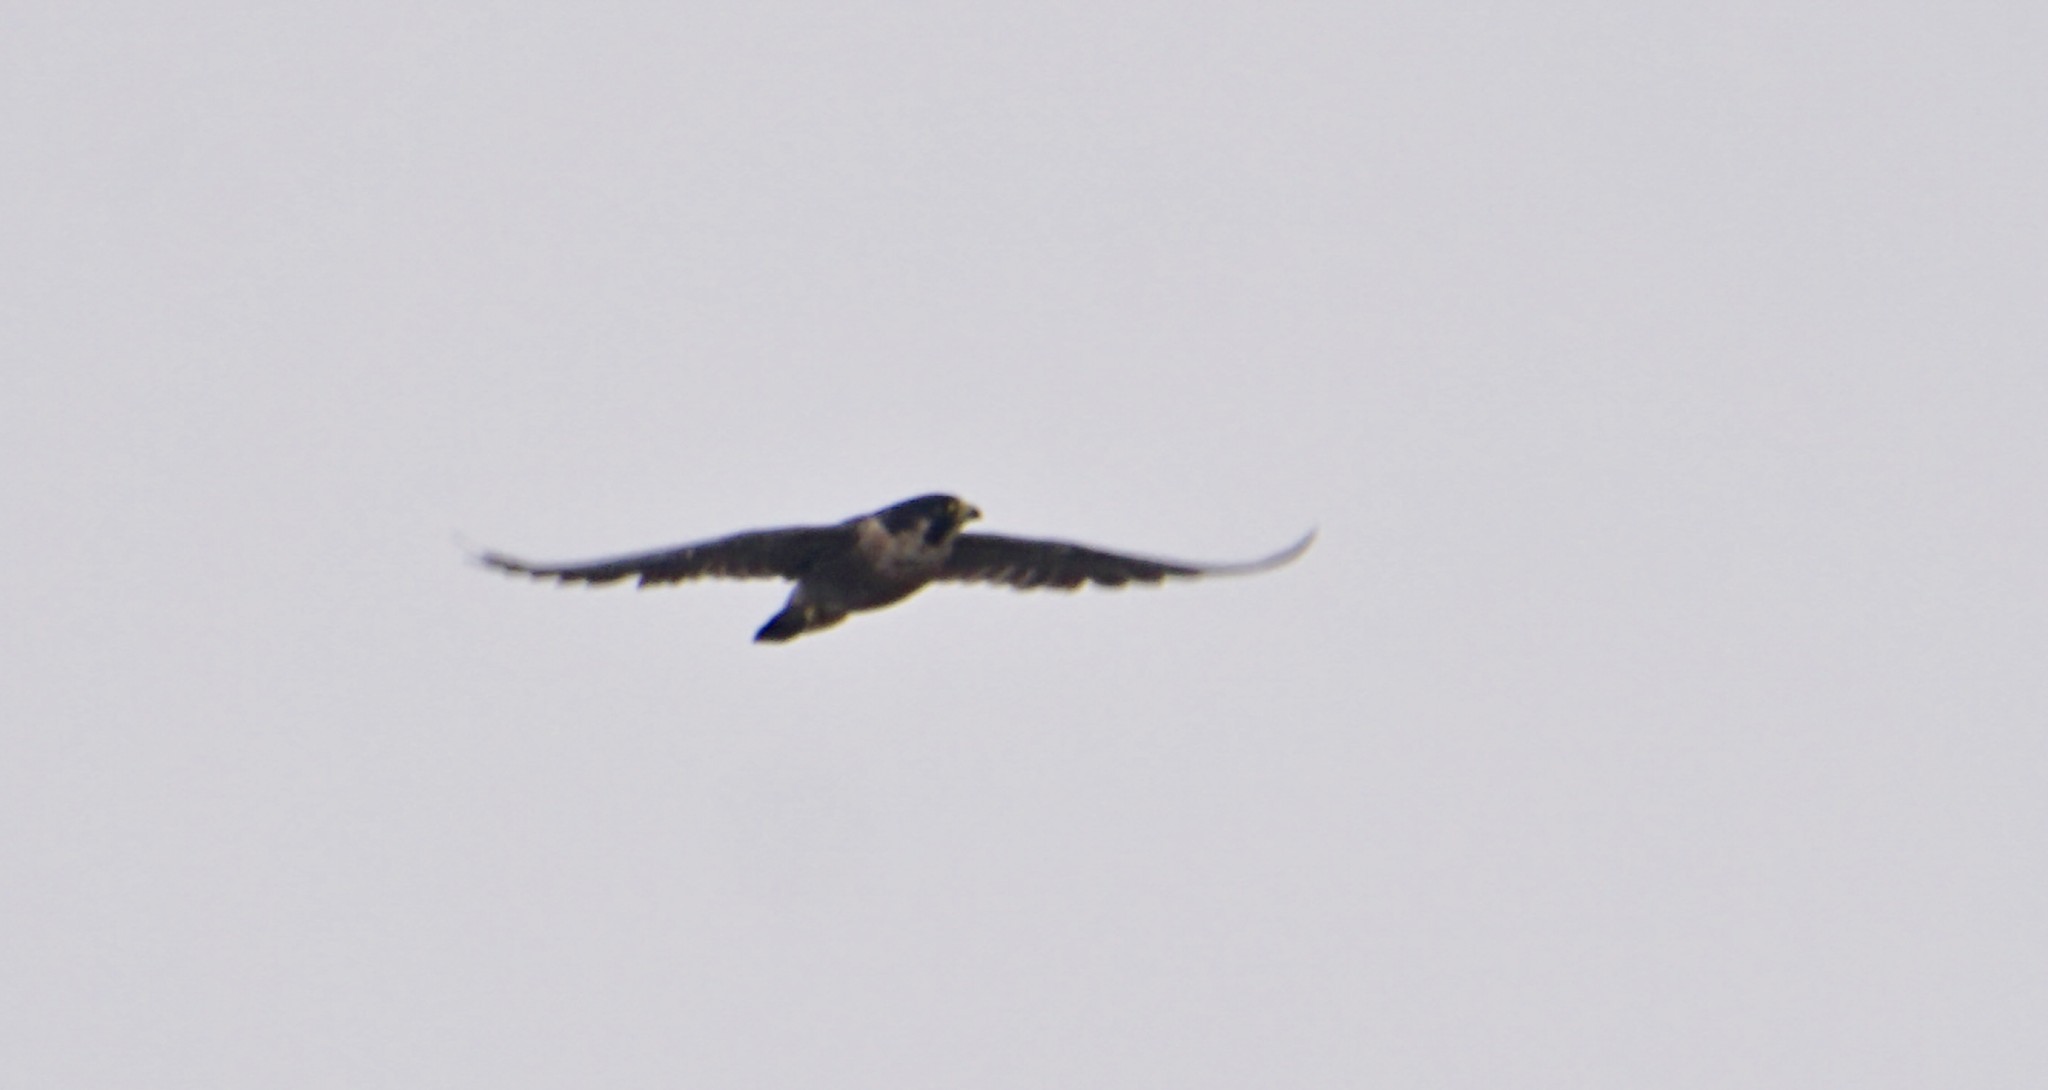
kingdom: Animalia
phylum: Chordata
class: Aves
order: Falconiformes
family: Falconidae
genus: Falco
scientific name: Falco peregrinus
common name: Peregrine falcon
